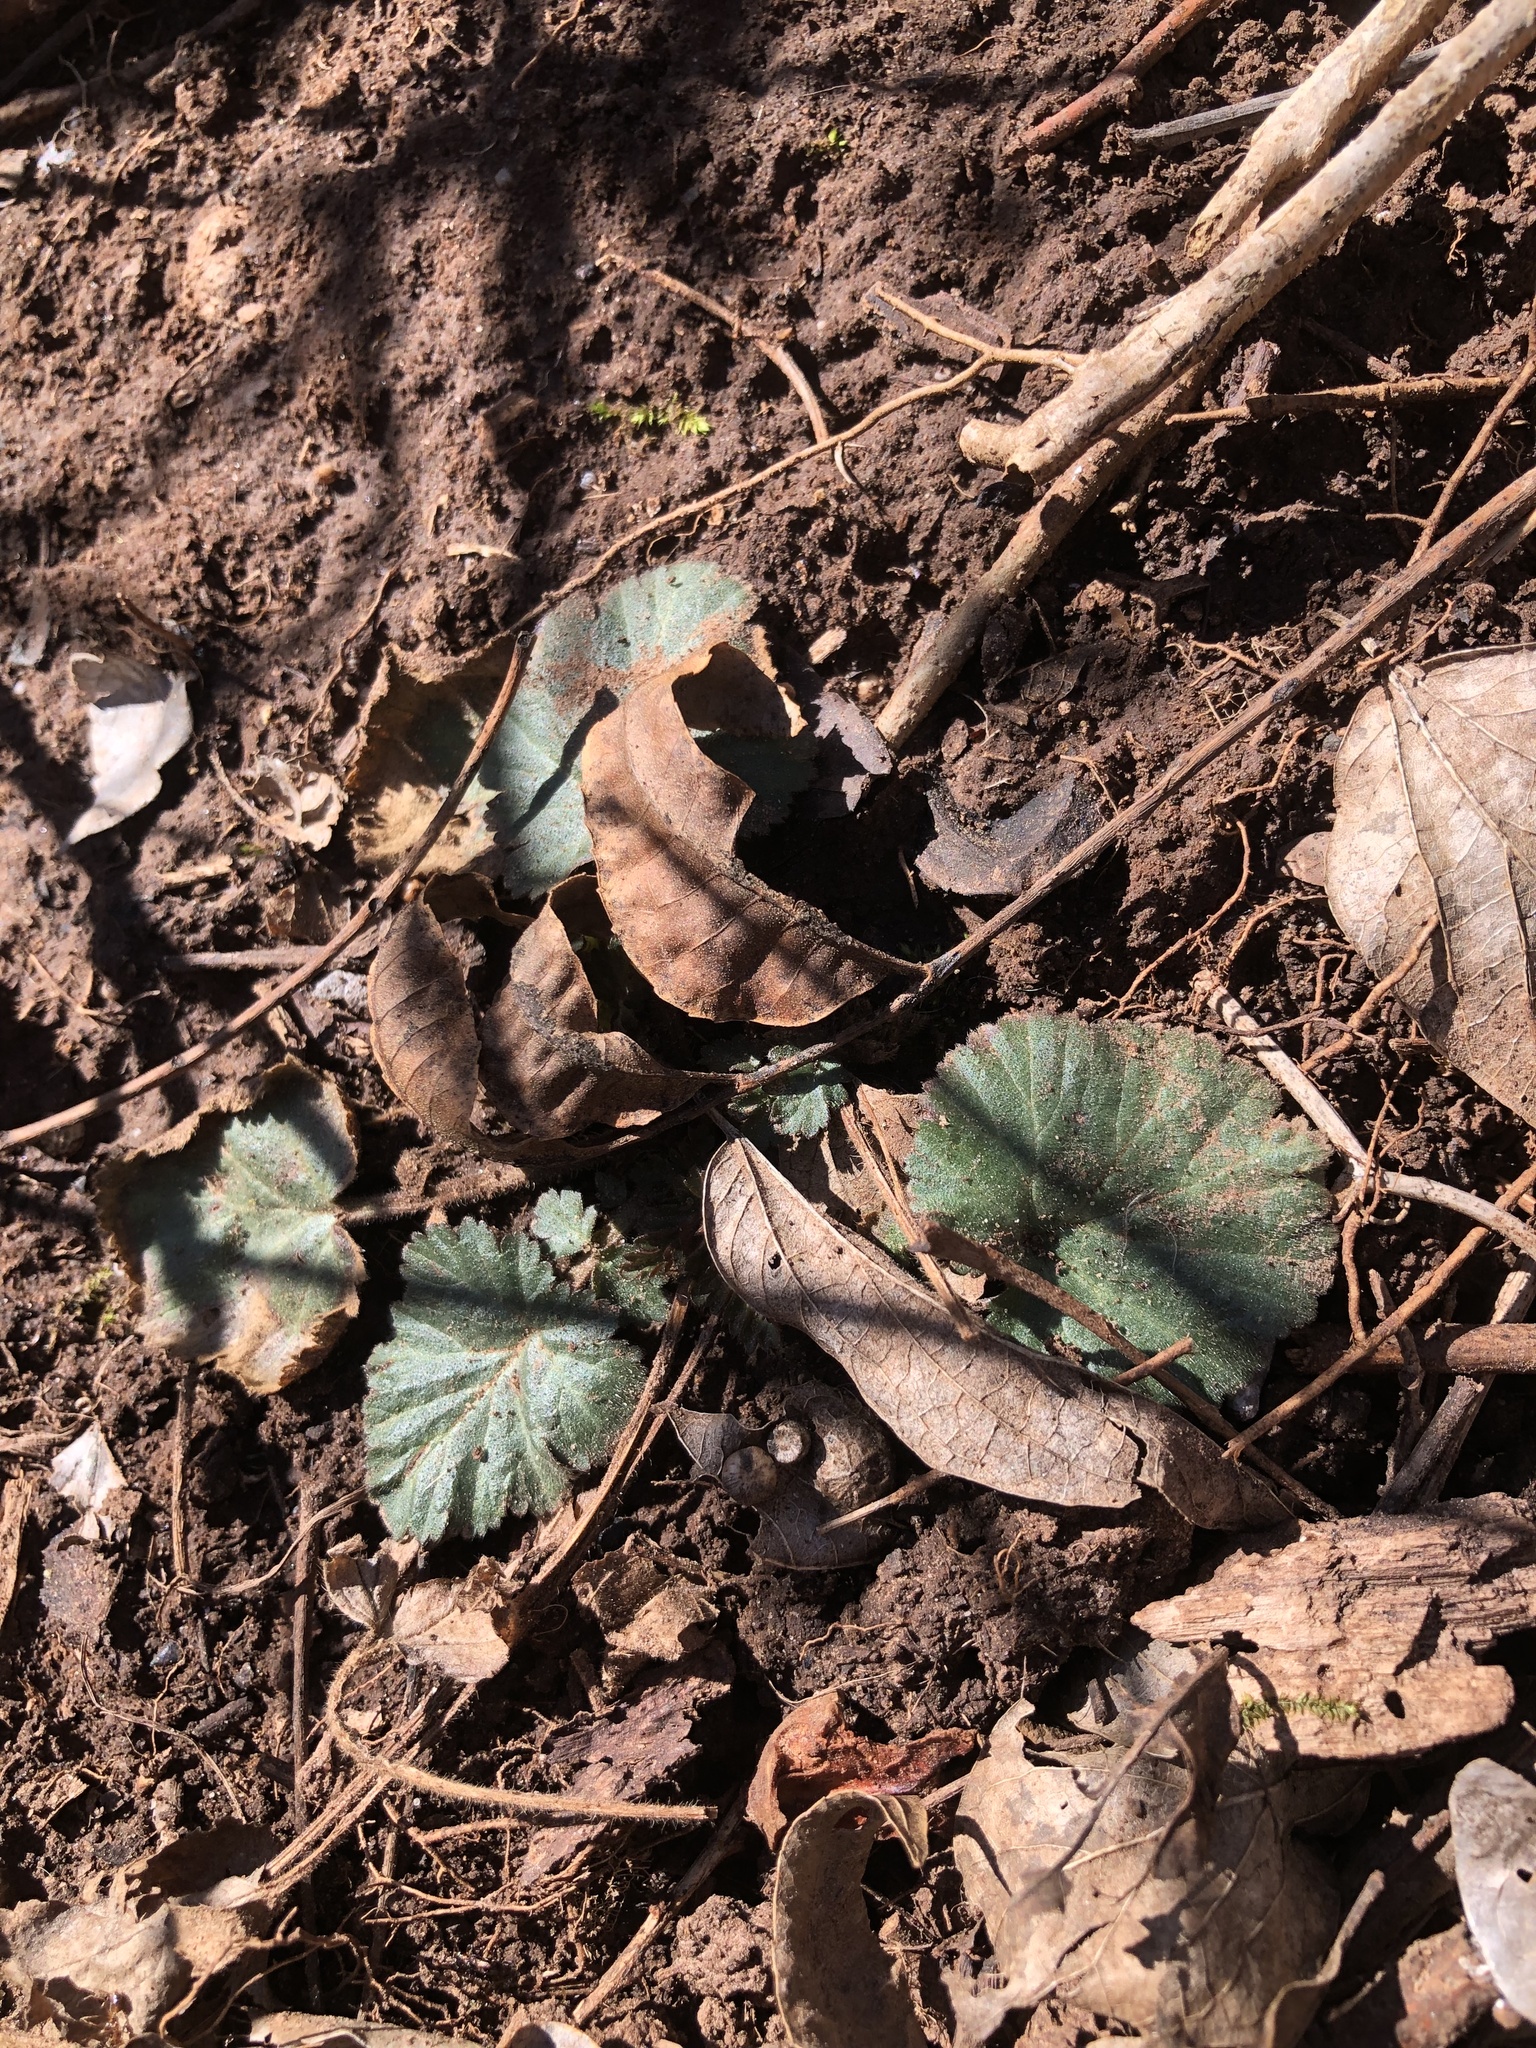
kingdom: Plantae
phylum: Tracheophyta
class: Magnoliopsida
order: Rosales
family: Rosaceae
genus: Geum
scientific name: Geum canadense
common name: White avens
